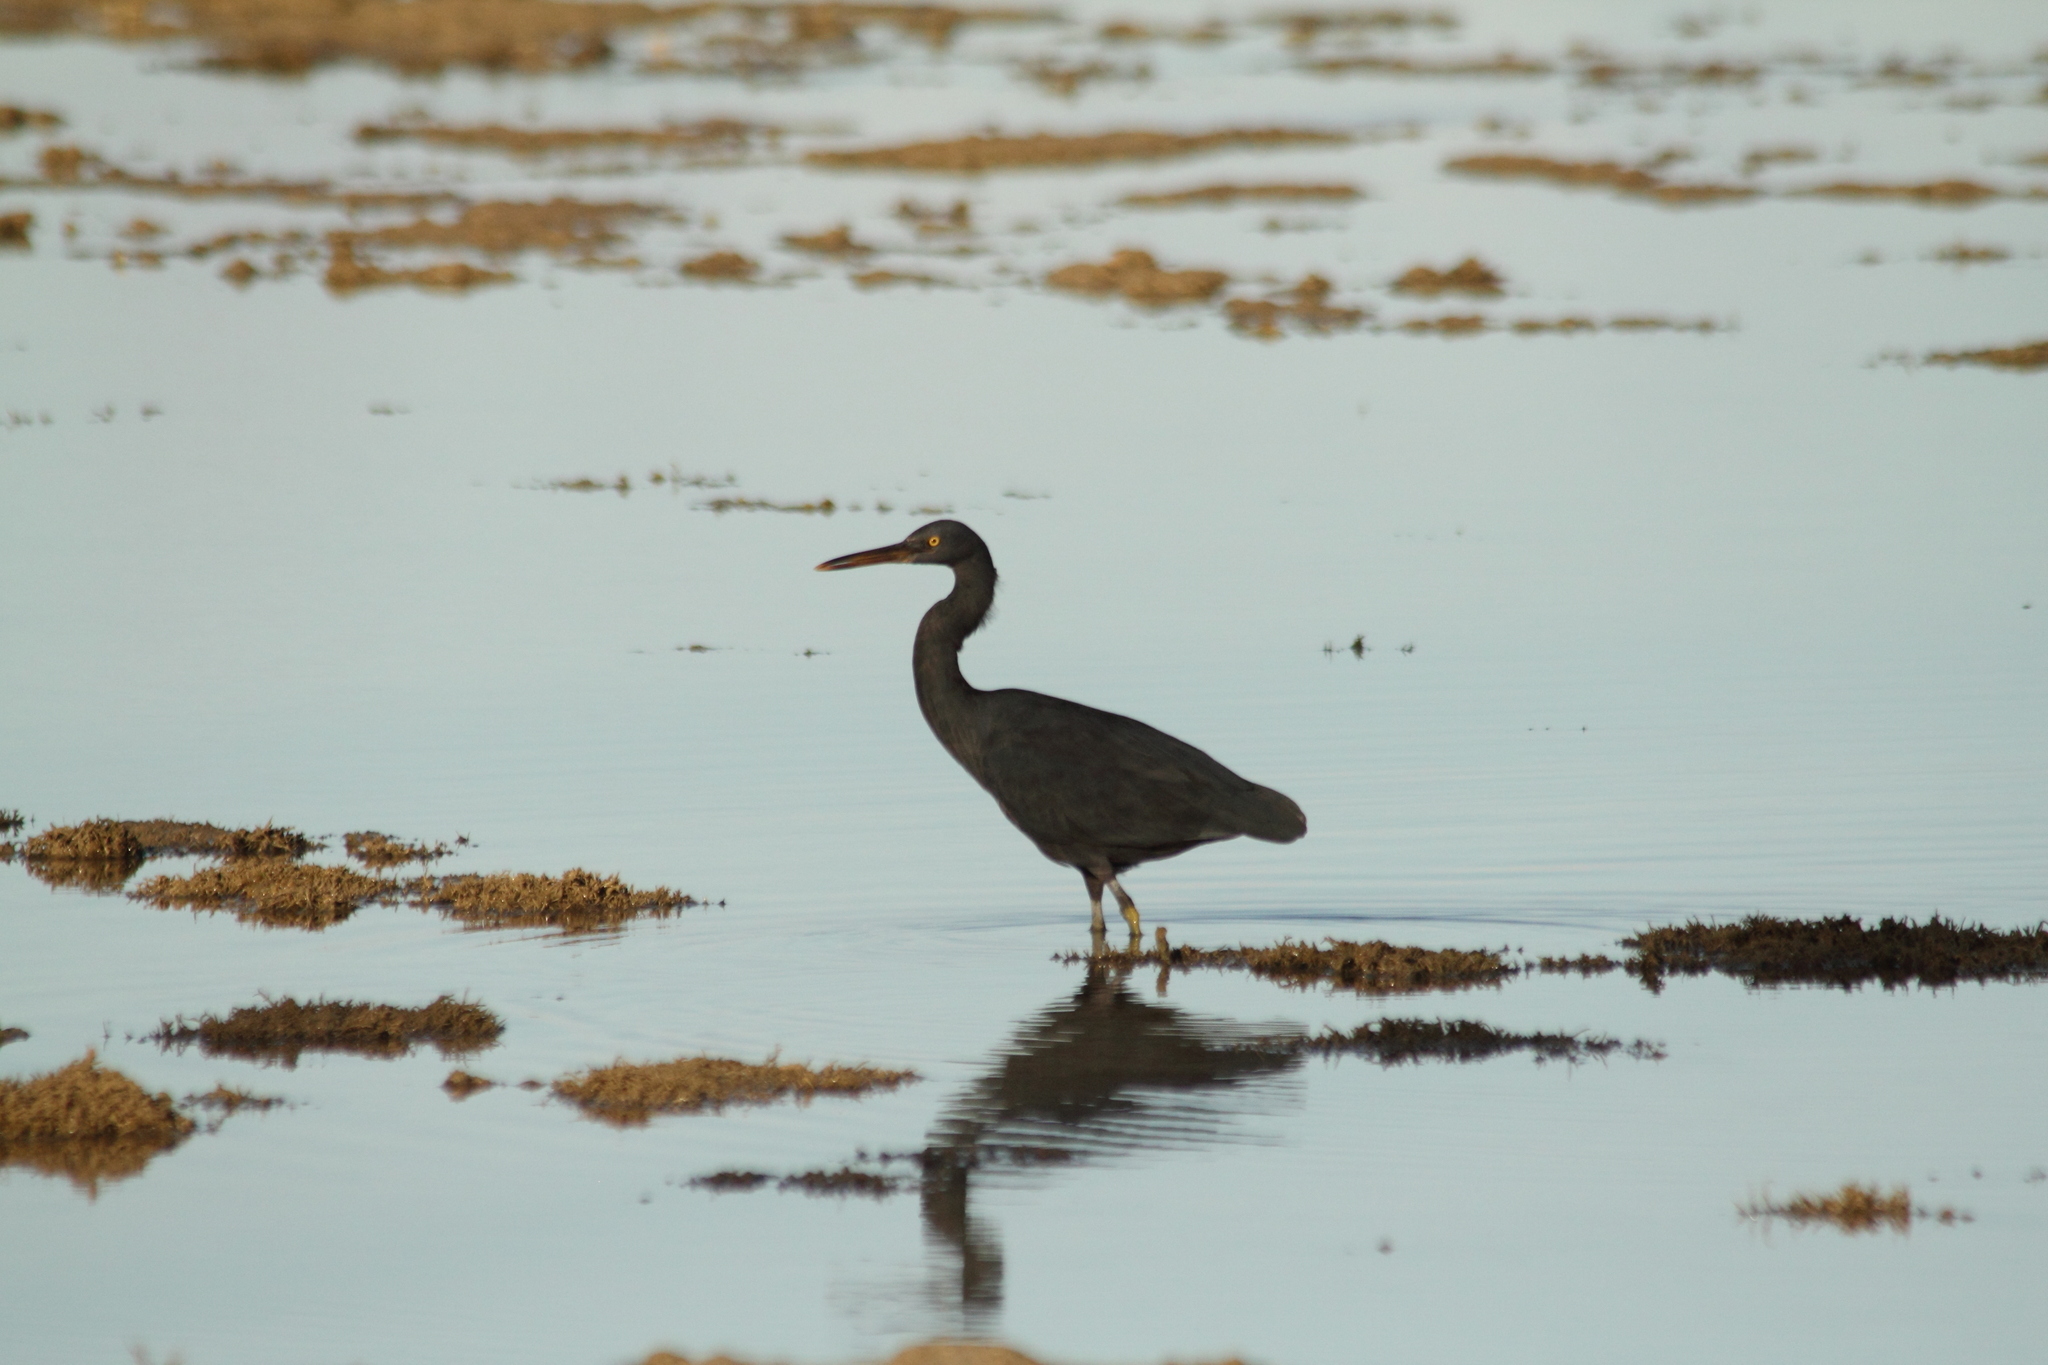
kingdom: Animalia
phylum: Chordata
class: Aves
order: Pelecaniformes
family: Ardeidae
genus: Egretta
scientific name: Egretta sacra
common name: Pacific reef heron
